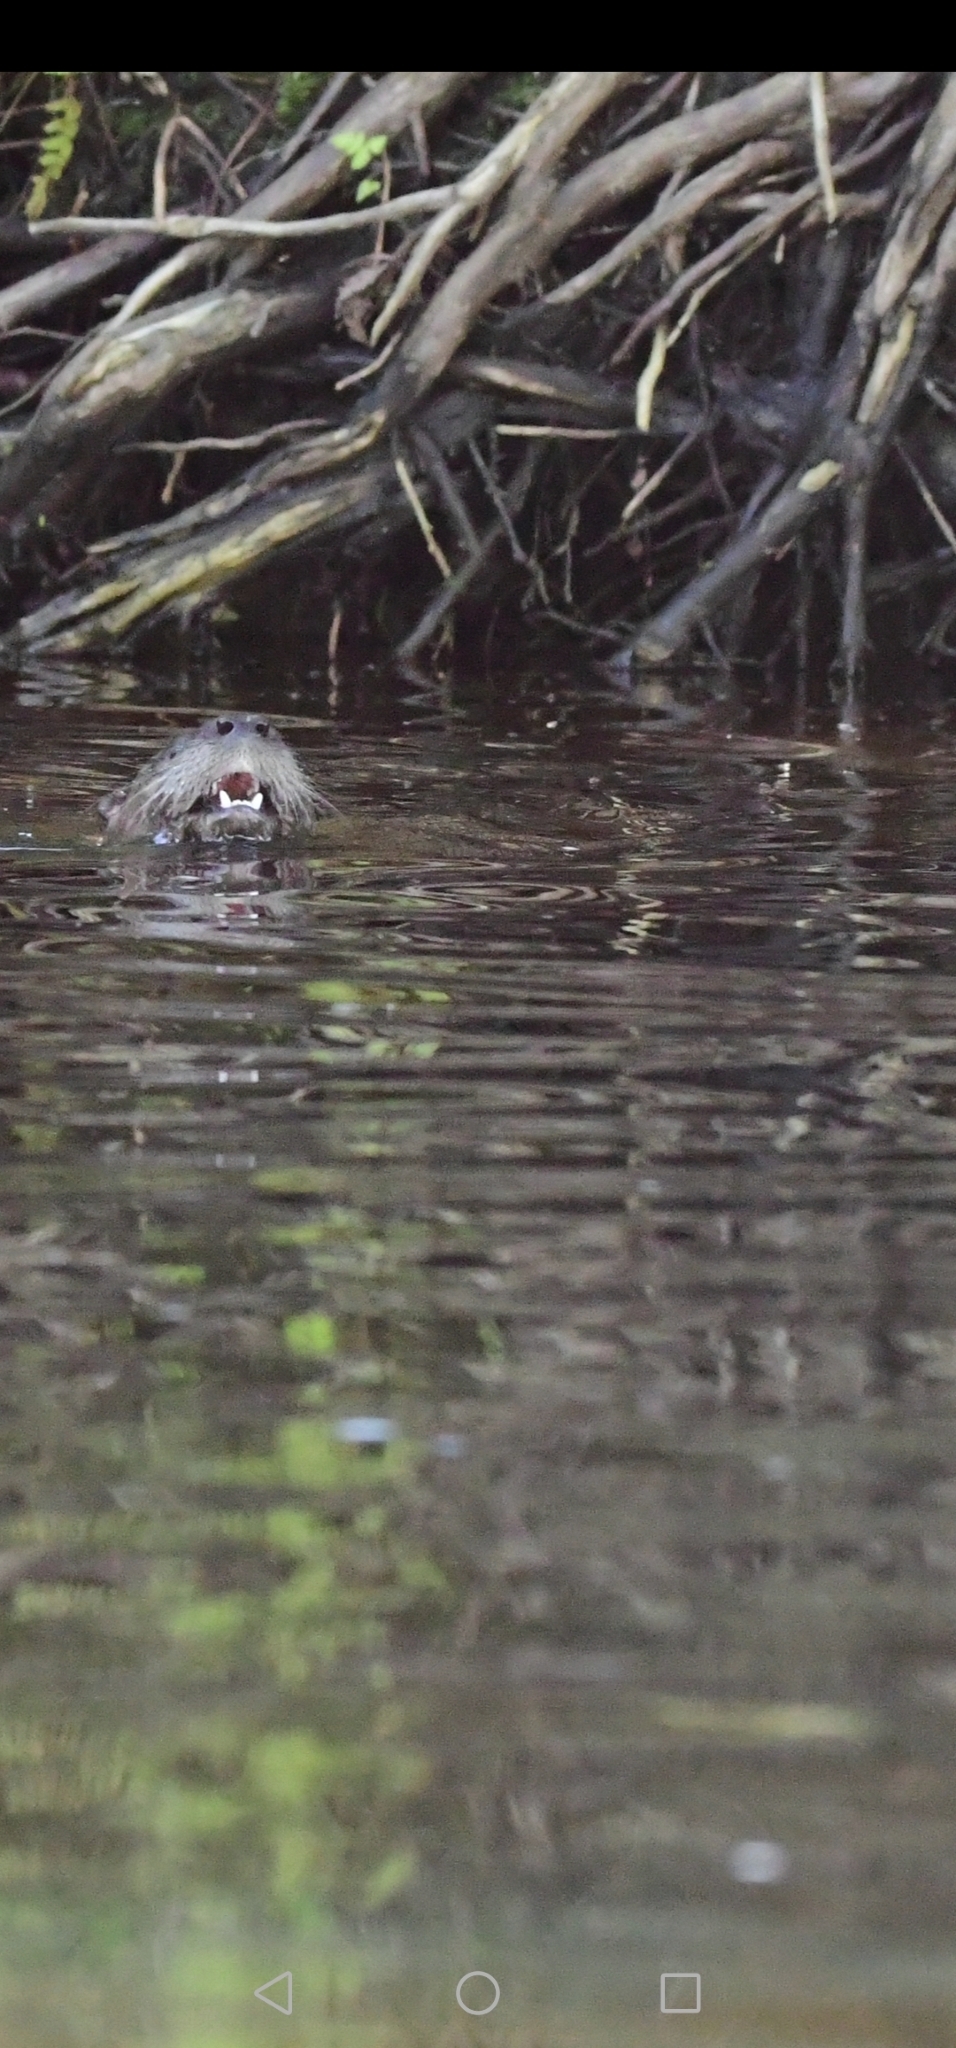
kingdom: Animalia
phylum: Chordata
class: Mammalia
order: Carnivora
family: Mustelidae
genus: Lontra
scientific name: Lontra canadensis
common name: North american river otter
